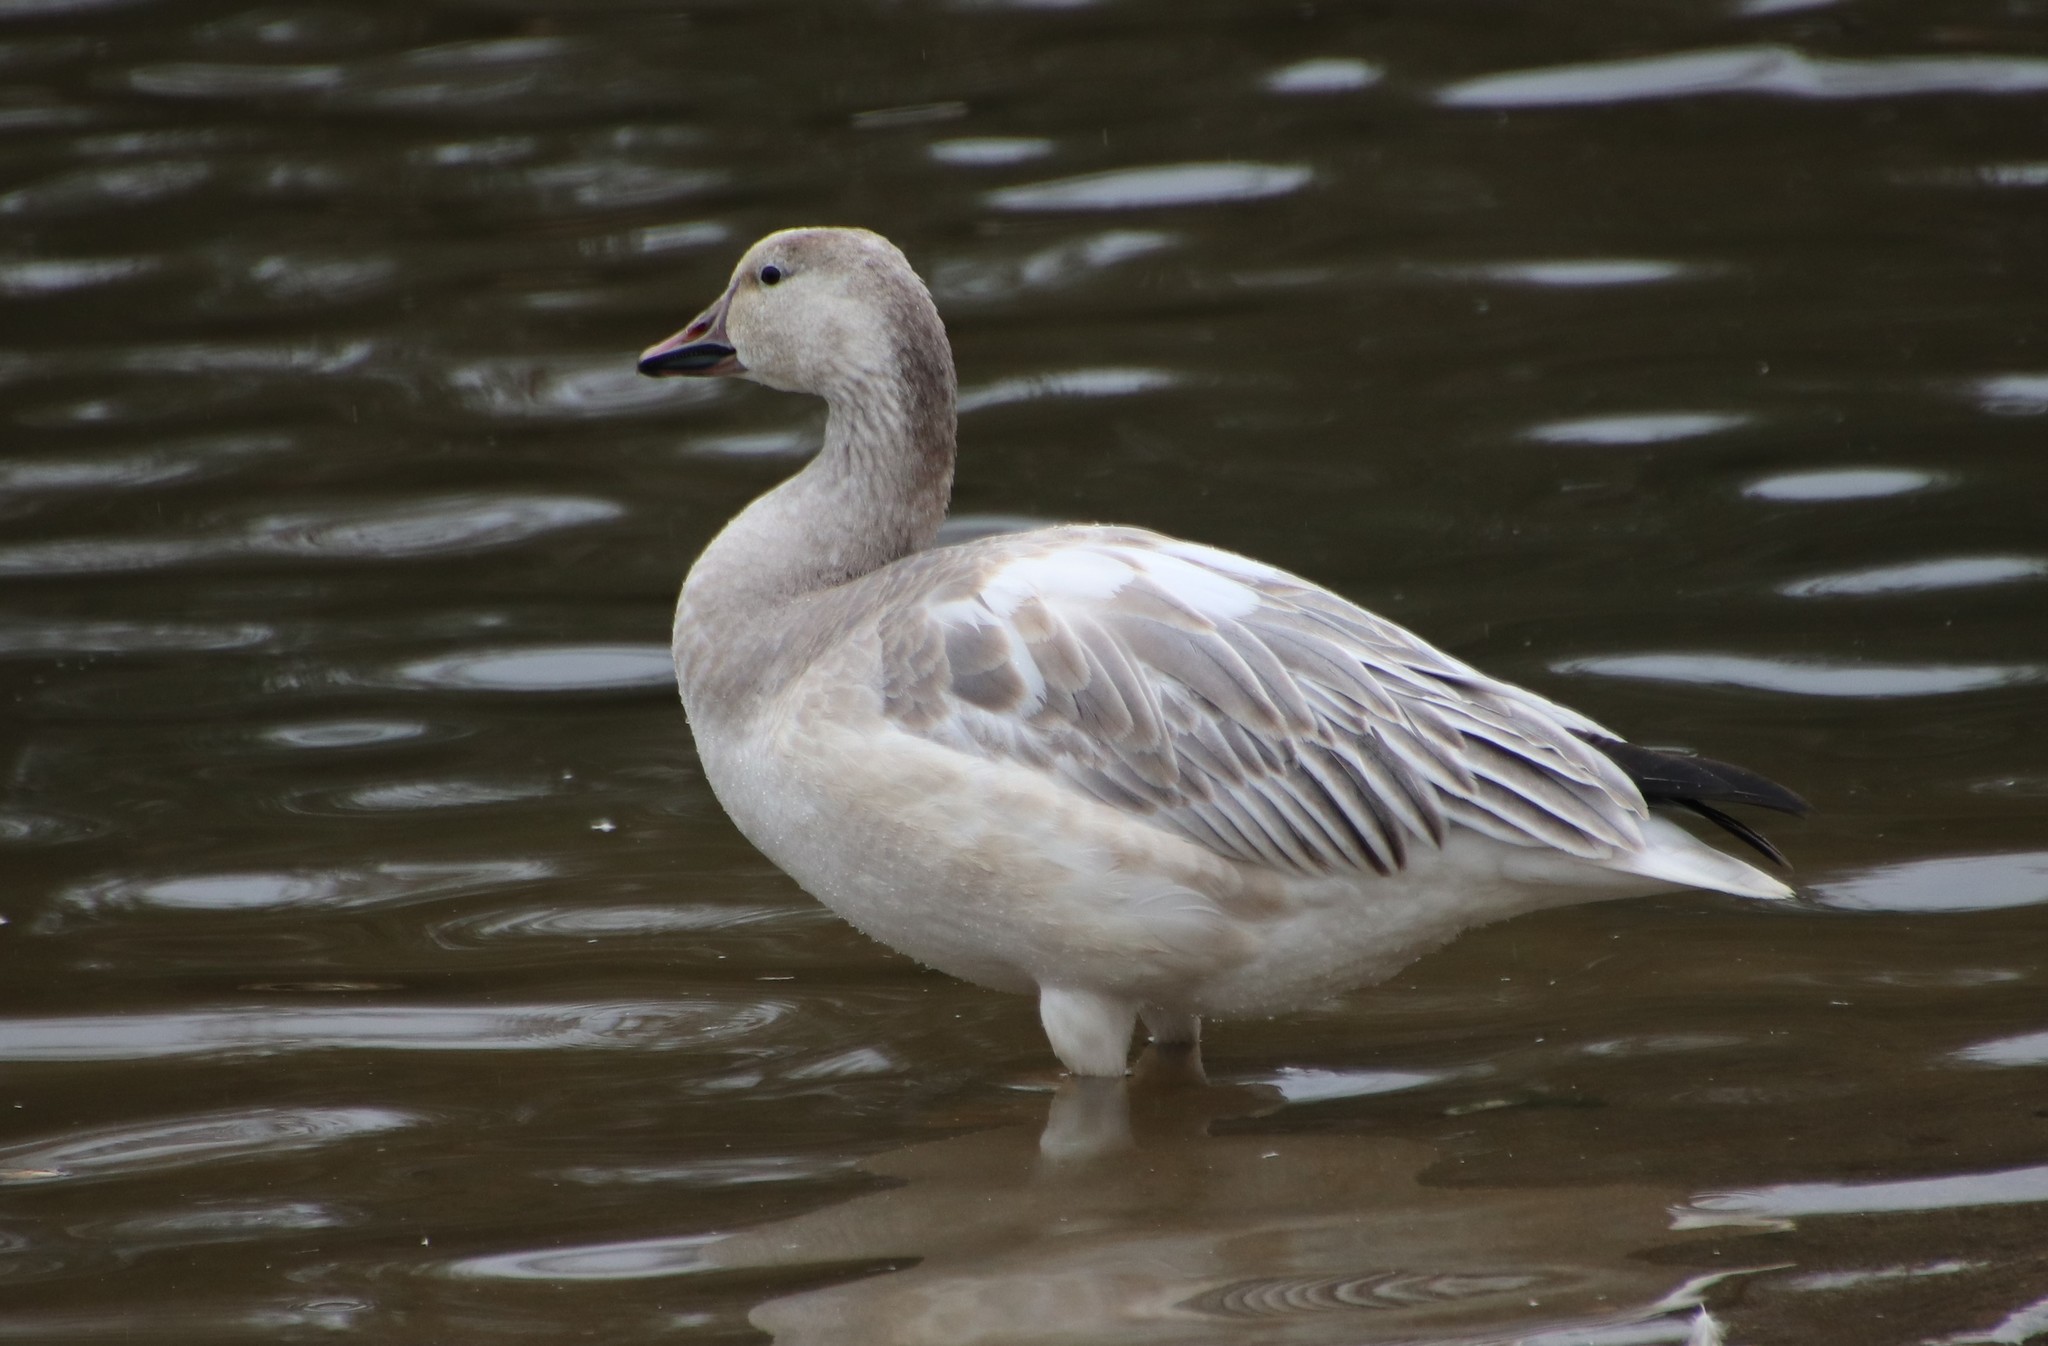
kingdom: Animalia
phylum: Chordata
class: Aves
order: Anseriformes
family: Anatidae
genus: Anser
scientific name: Anser caerulescens
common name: Snow goose
